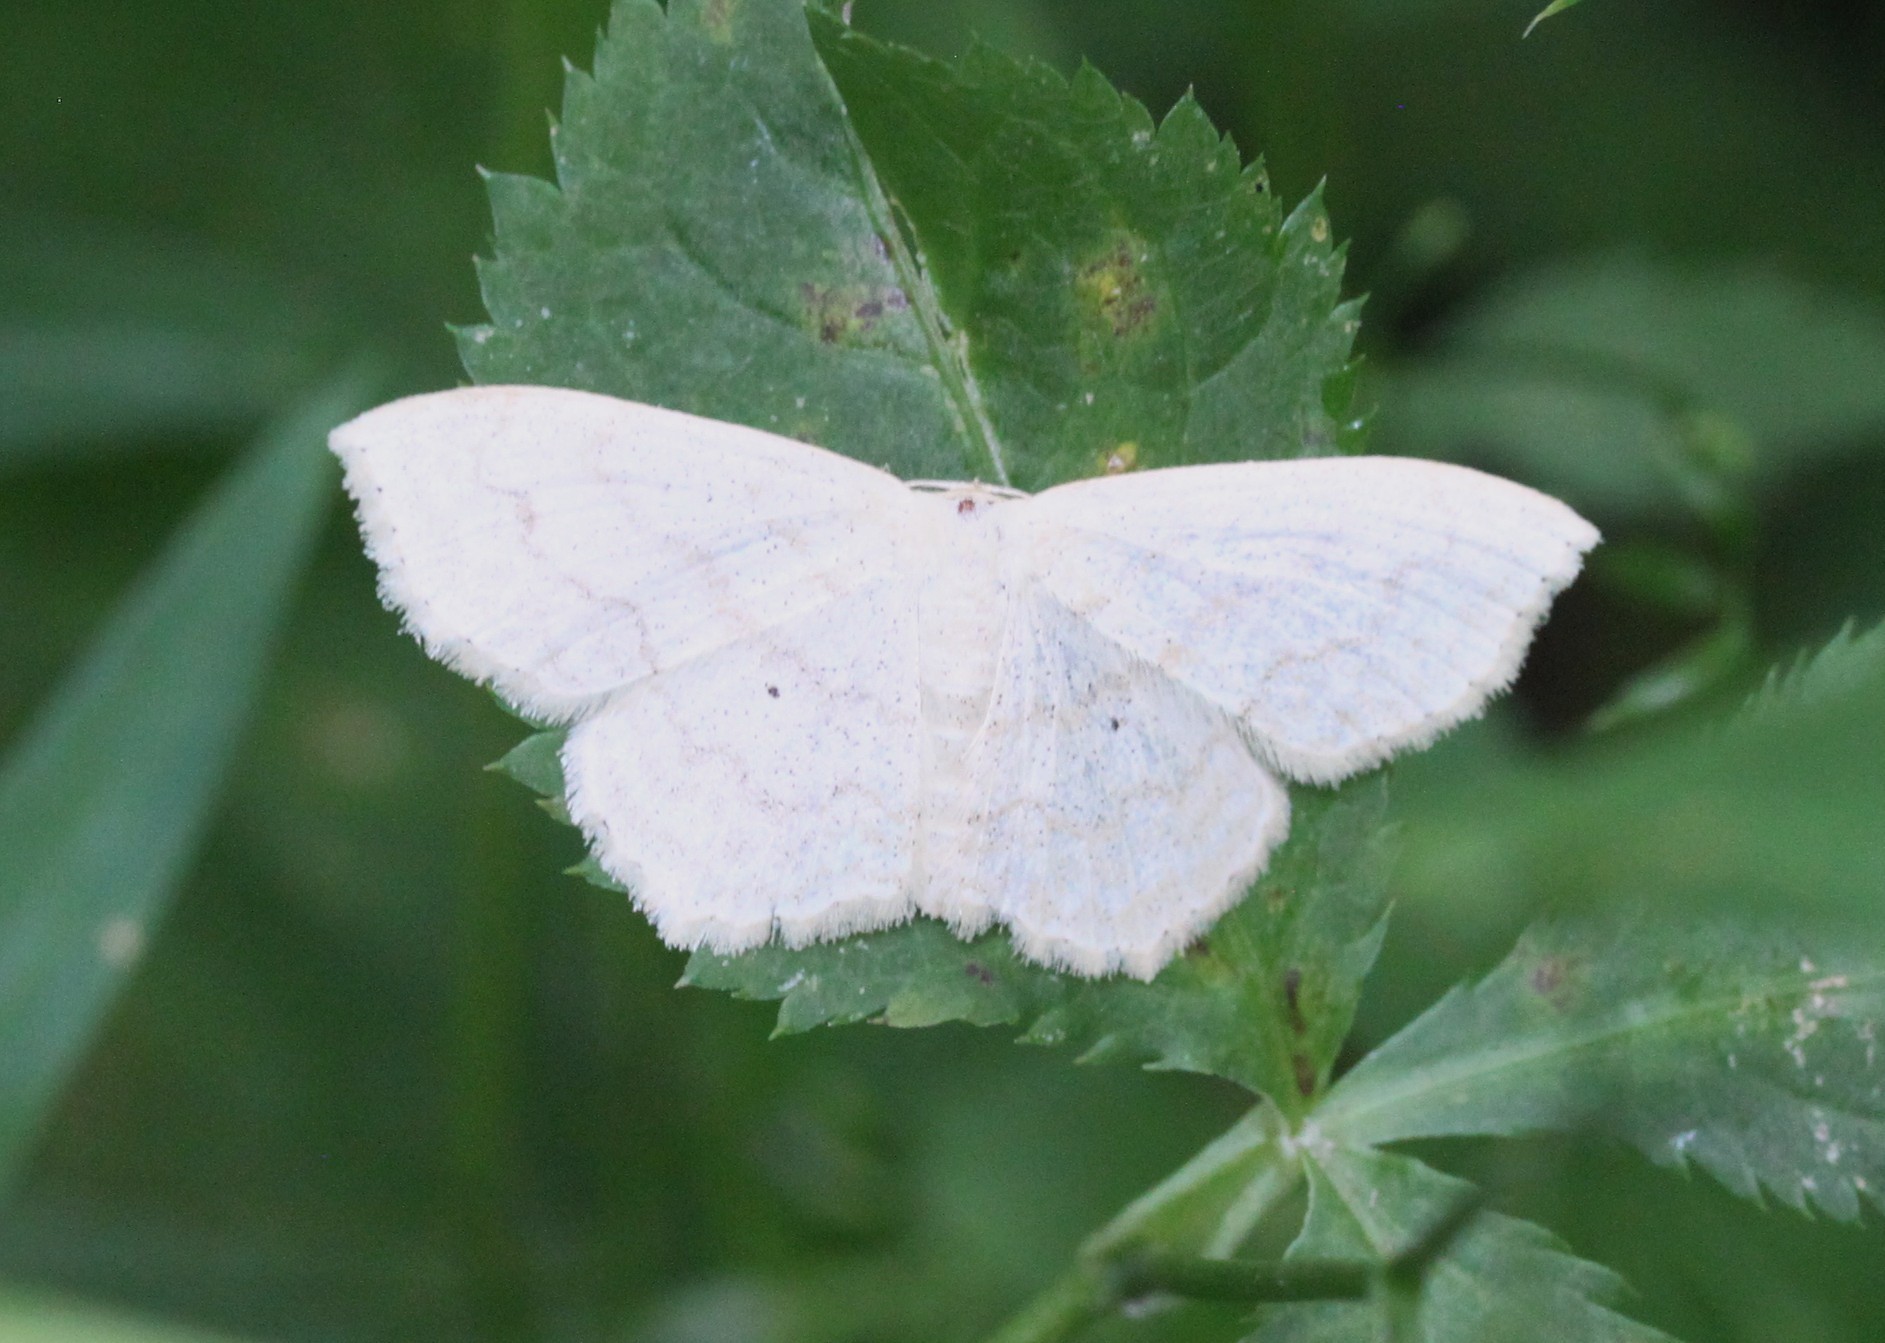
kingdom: Animalia
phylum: Arthropoda
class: Insecta
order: Lepidoptera
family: Geometridae
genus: Scopula
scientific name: Scopula limboundata
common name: Large lace border
